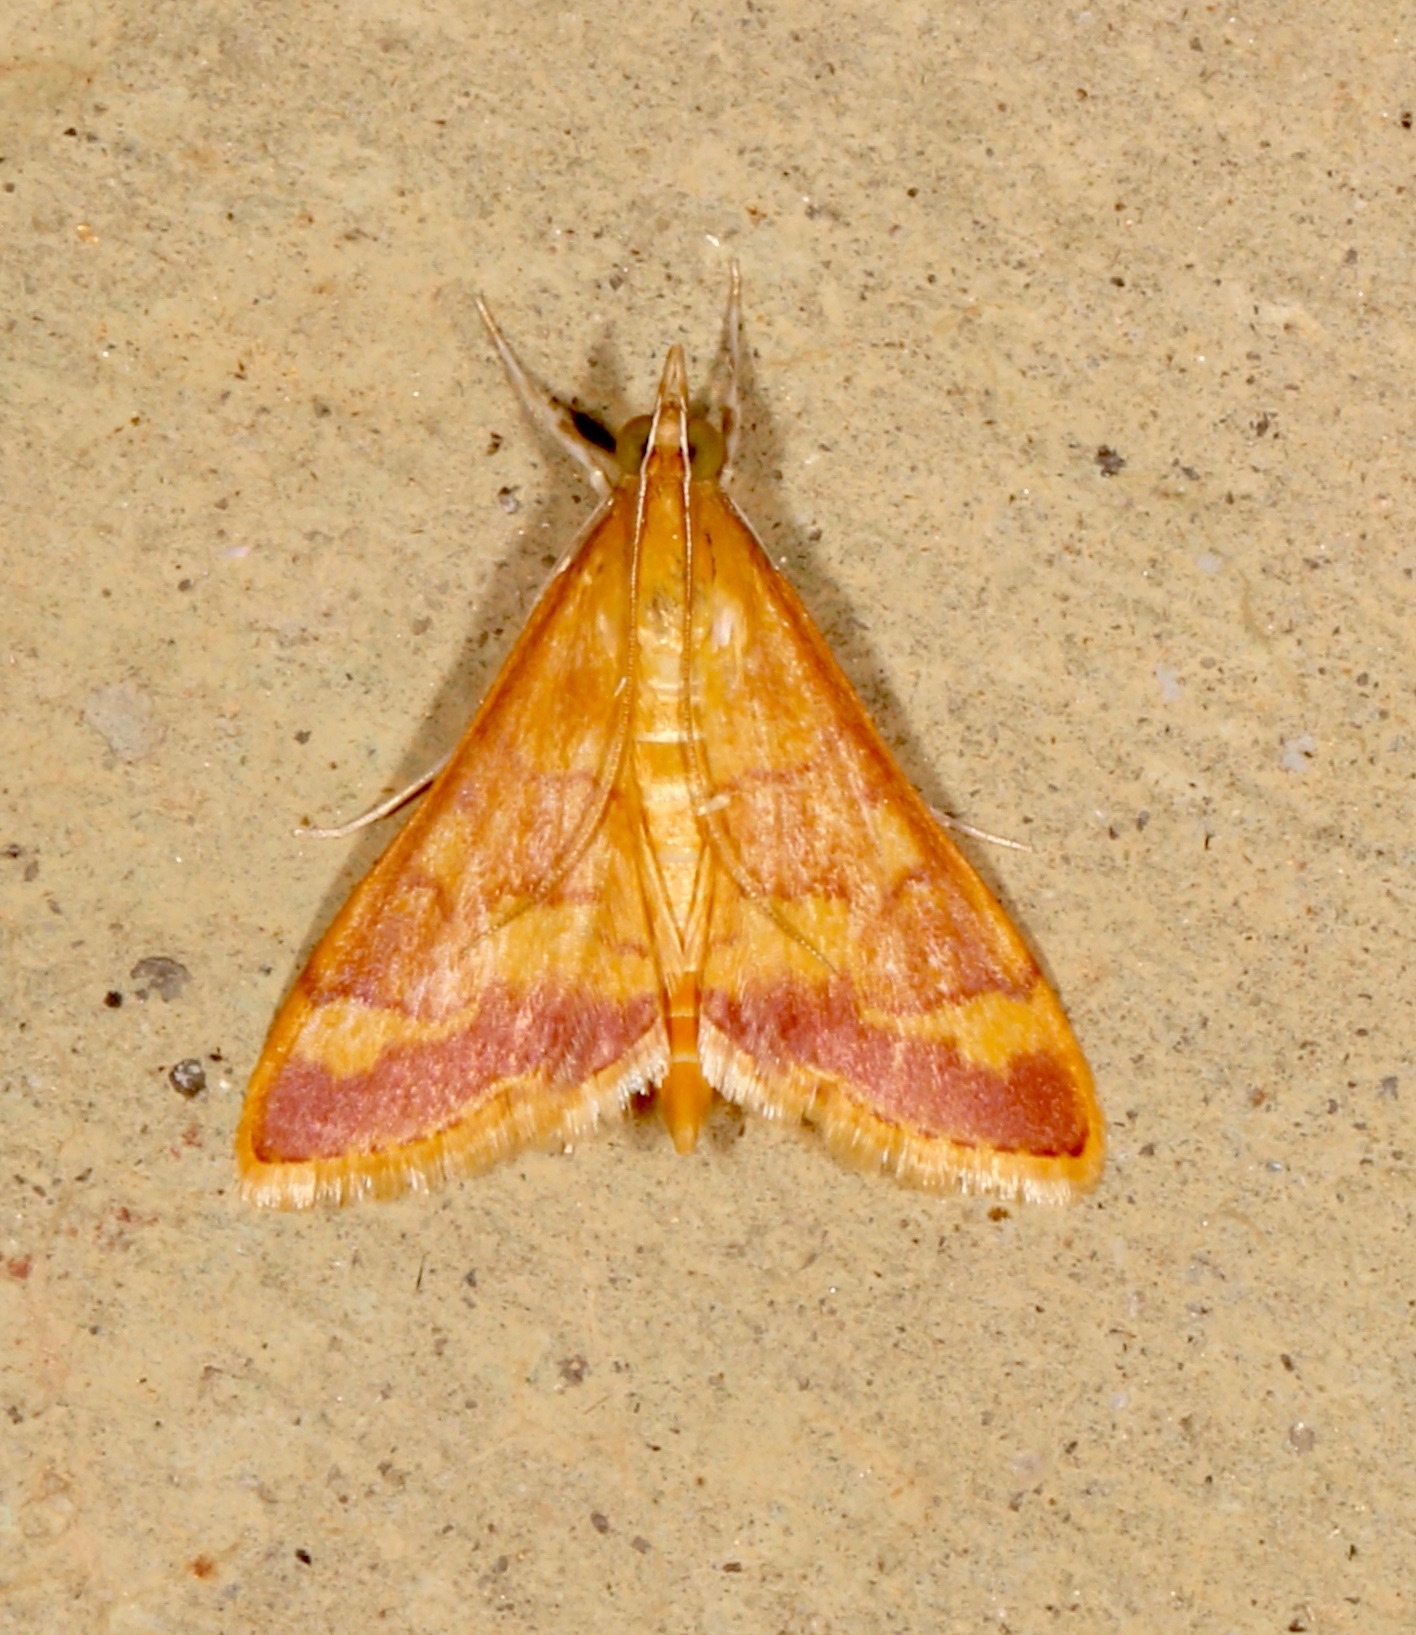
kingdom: Animalia
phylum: Arthropoda
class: Insecta
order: Lepidoptera
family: Crambidae
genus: Pyrausta
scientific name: Pyrausta pseudonythesalis
